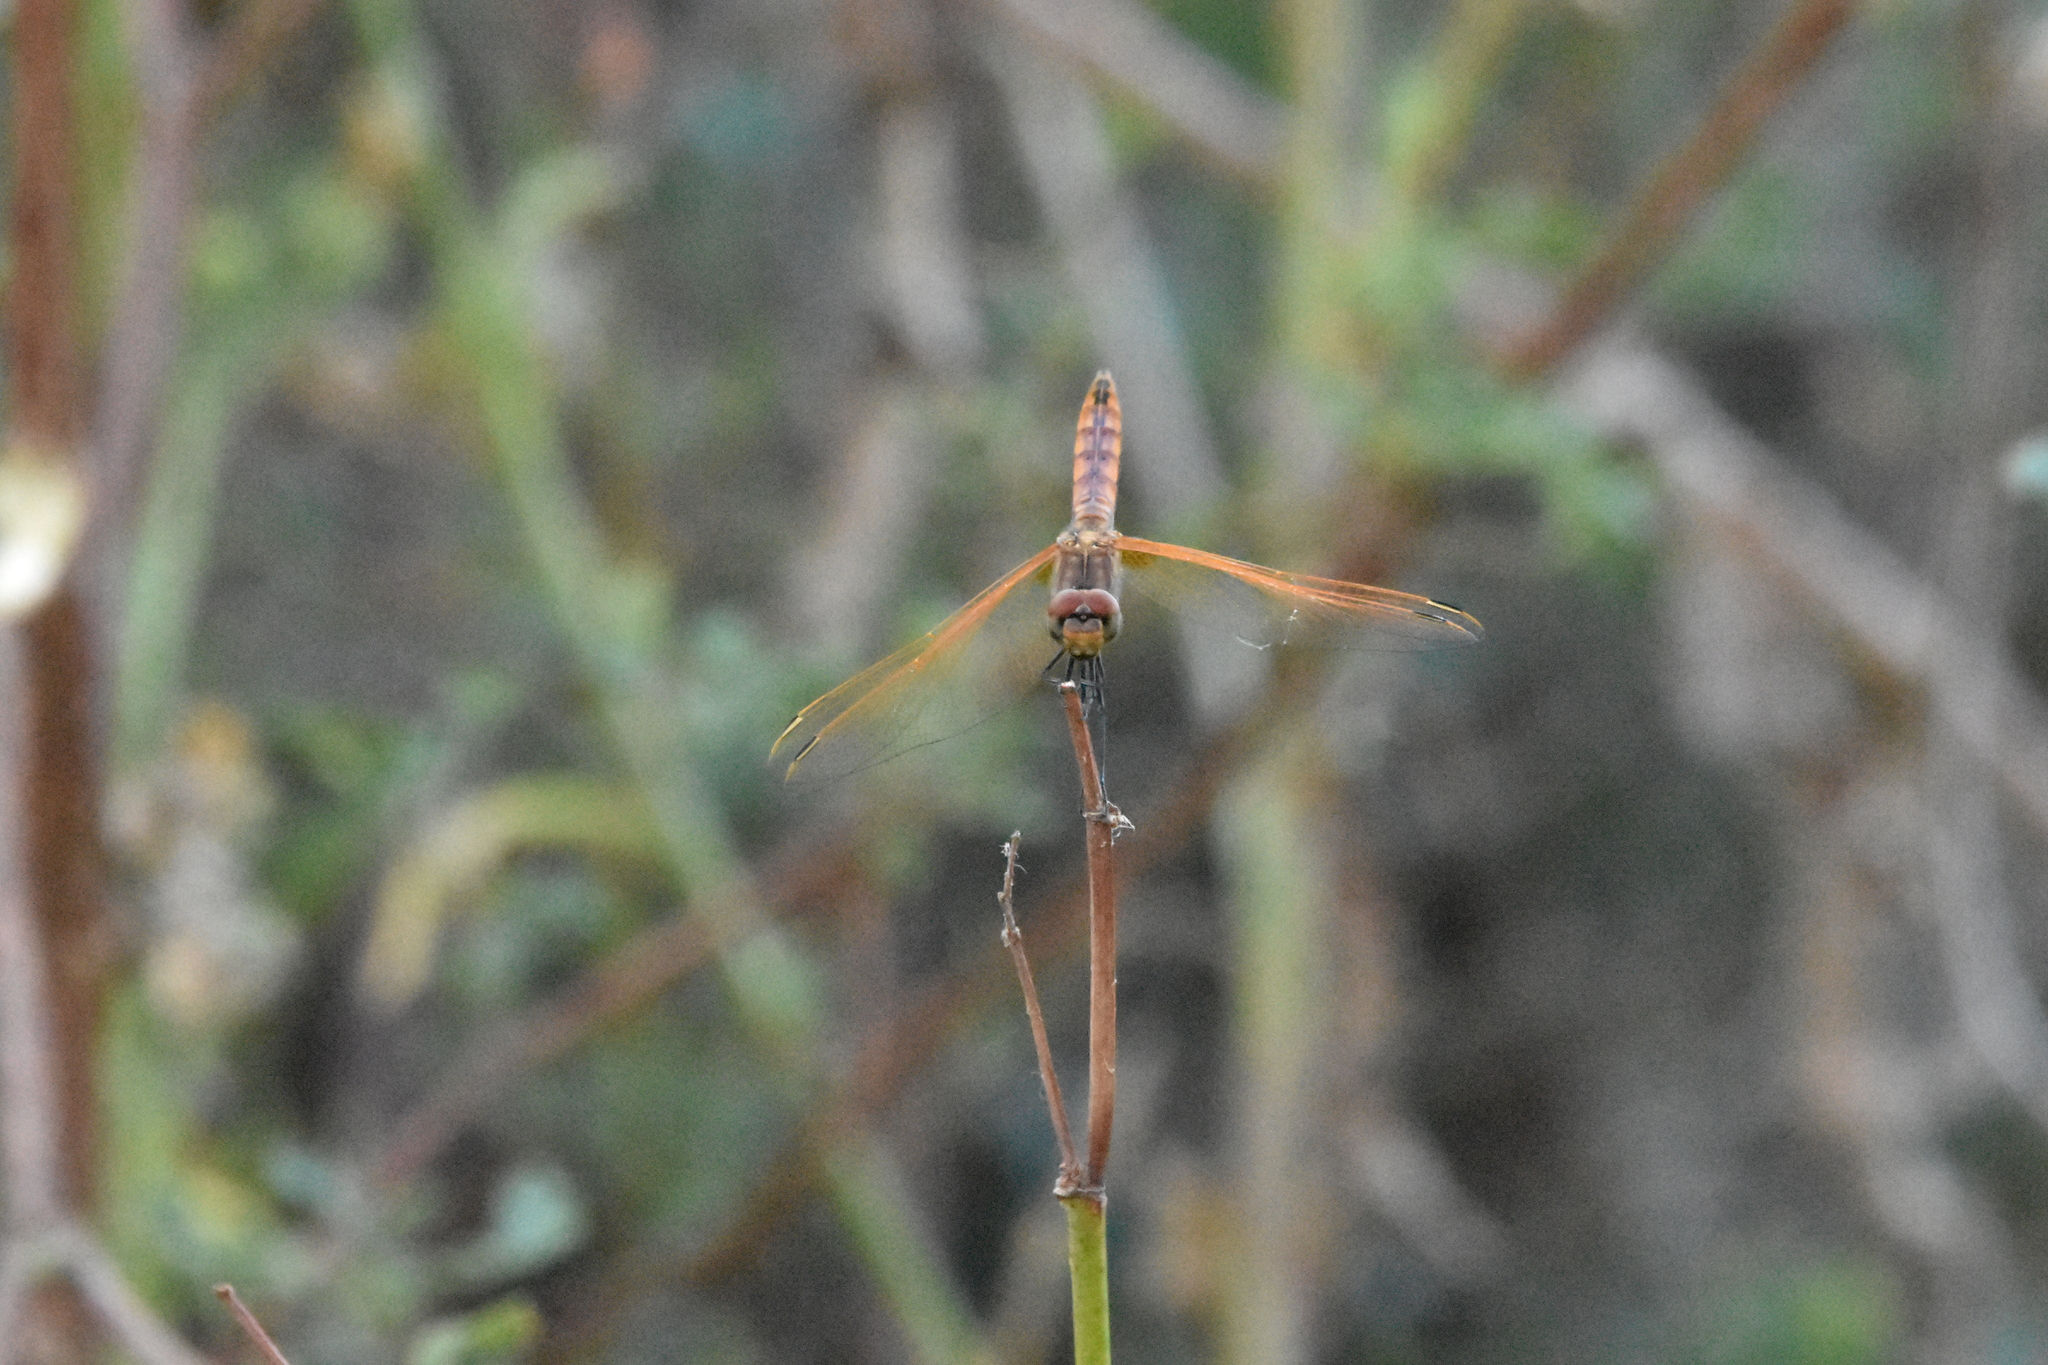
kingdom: Animalia
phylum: Arthropoda
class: Insecta
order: Odonata
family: Libellulidae
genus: Trithemis
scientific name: Trithemis annulata
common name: Violet dropwing
